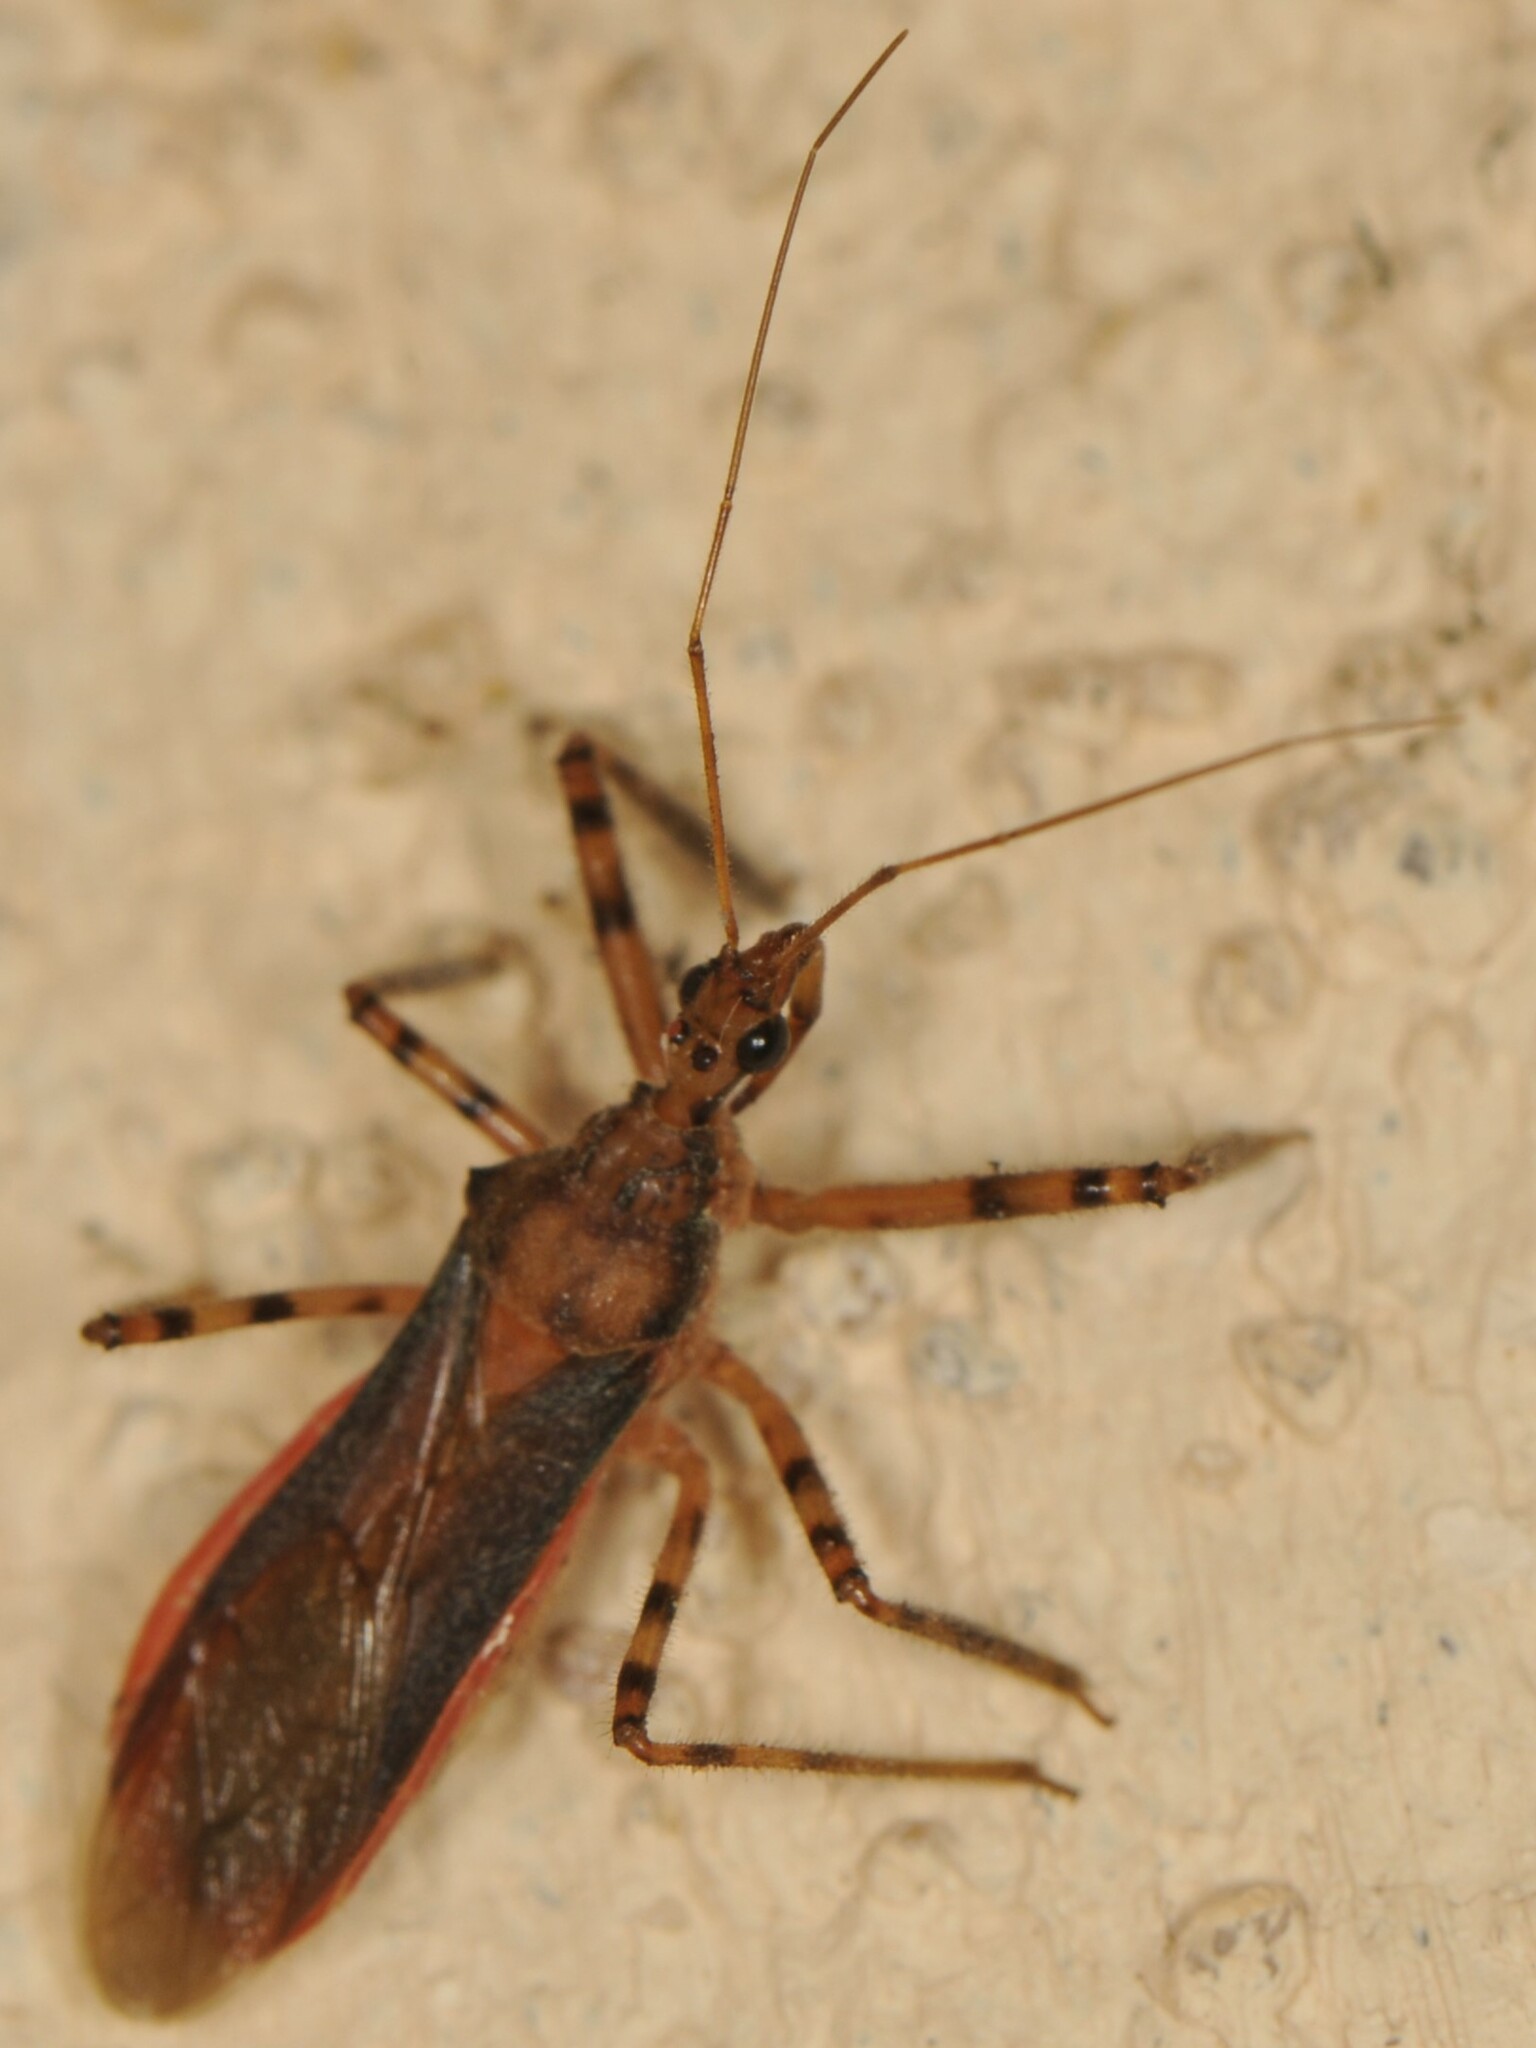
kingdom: Animalia
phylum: Arthropoda
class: Insecta
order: Hemiptera
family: Reduviidae
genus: Castolus
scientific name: Castolus ferox
